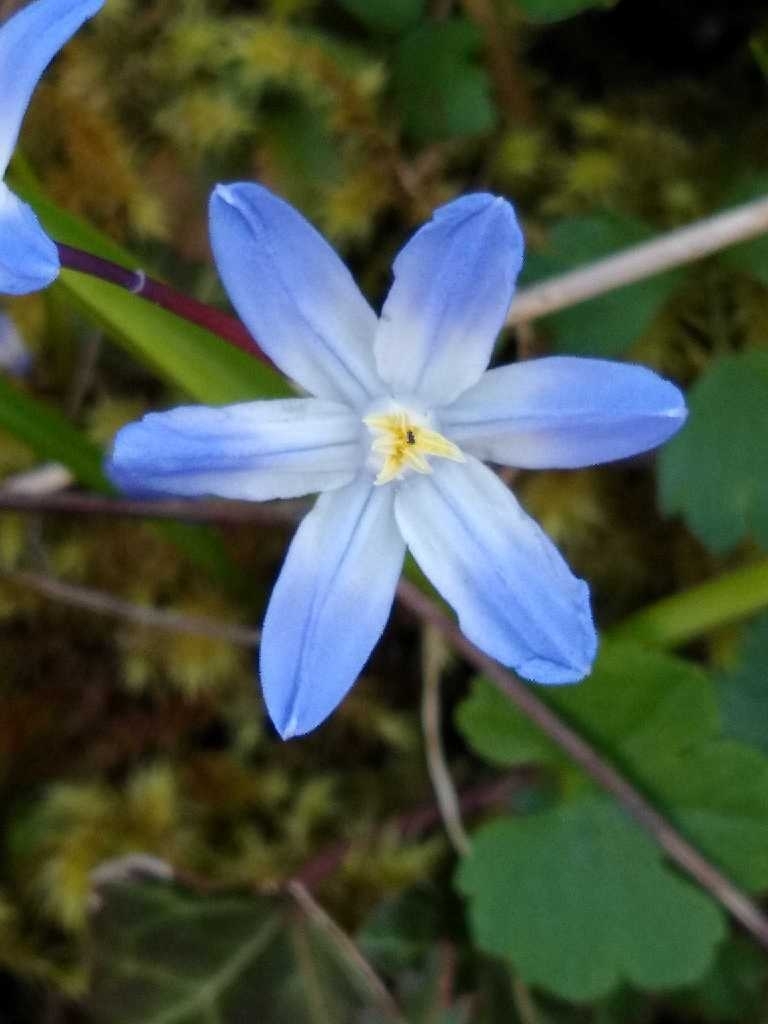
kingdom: Plantae
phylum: Tracheophyta
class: Liliopsida
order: Asparagales
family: Asparagaceae
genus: Scilla
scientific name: Scilla luciliae
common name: Boissier's glory-of-the-snow
